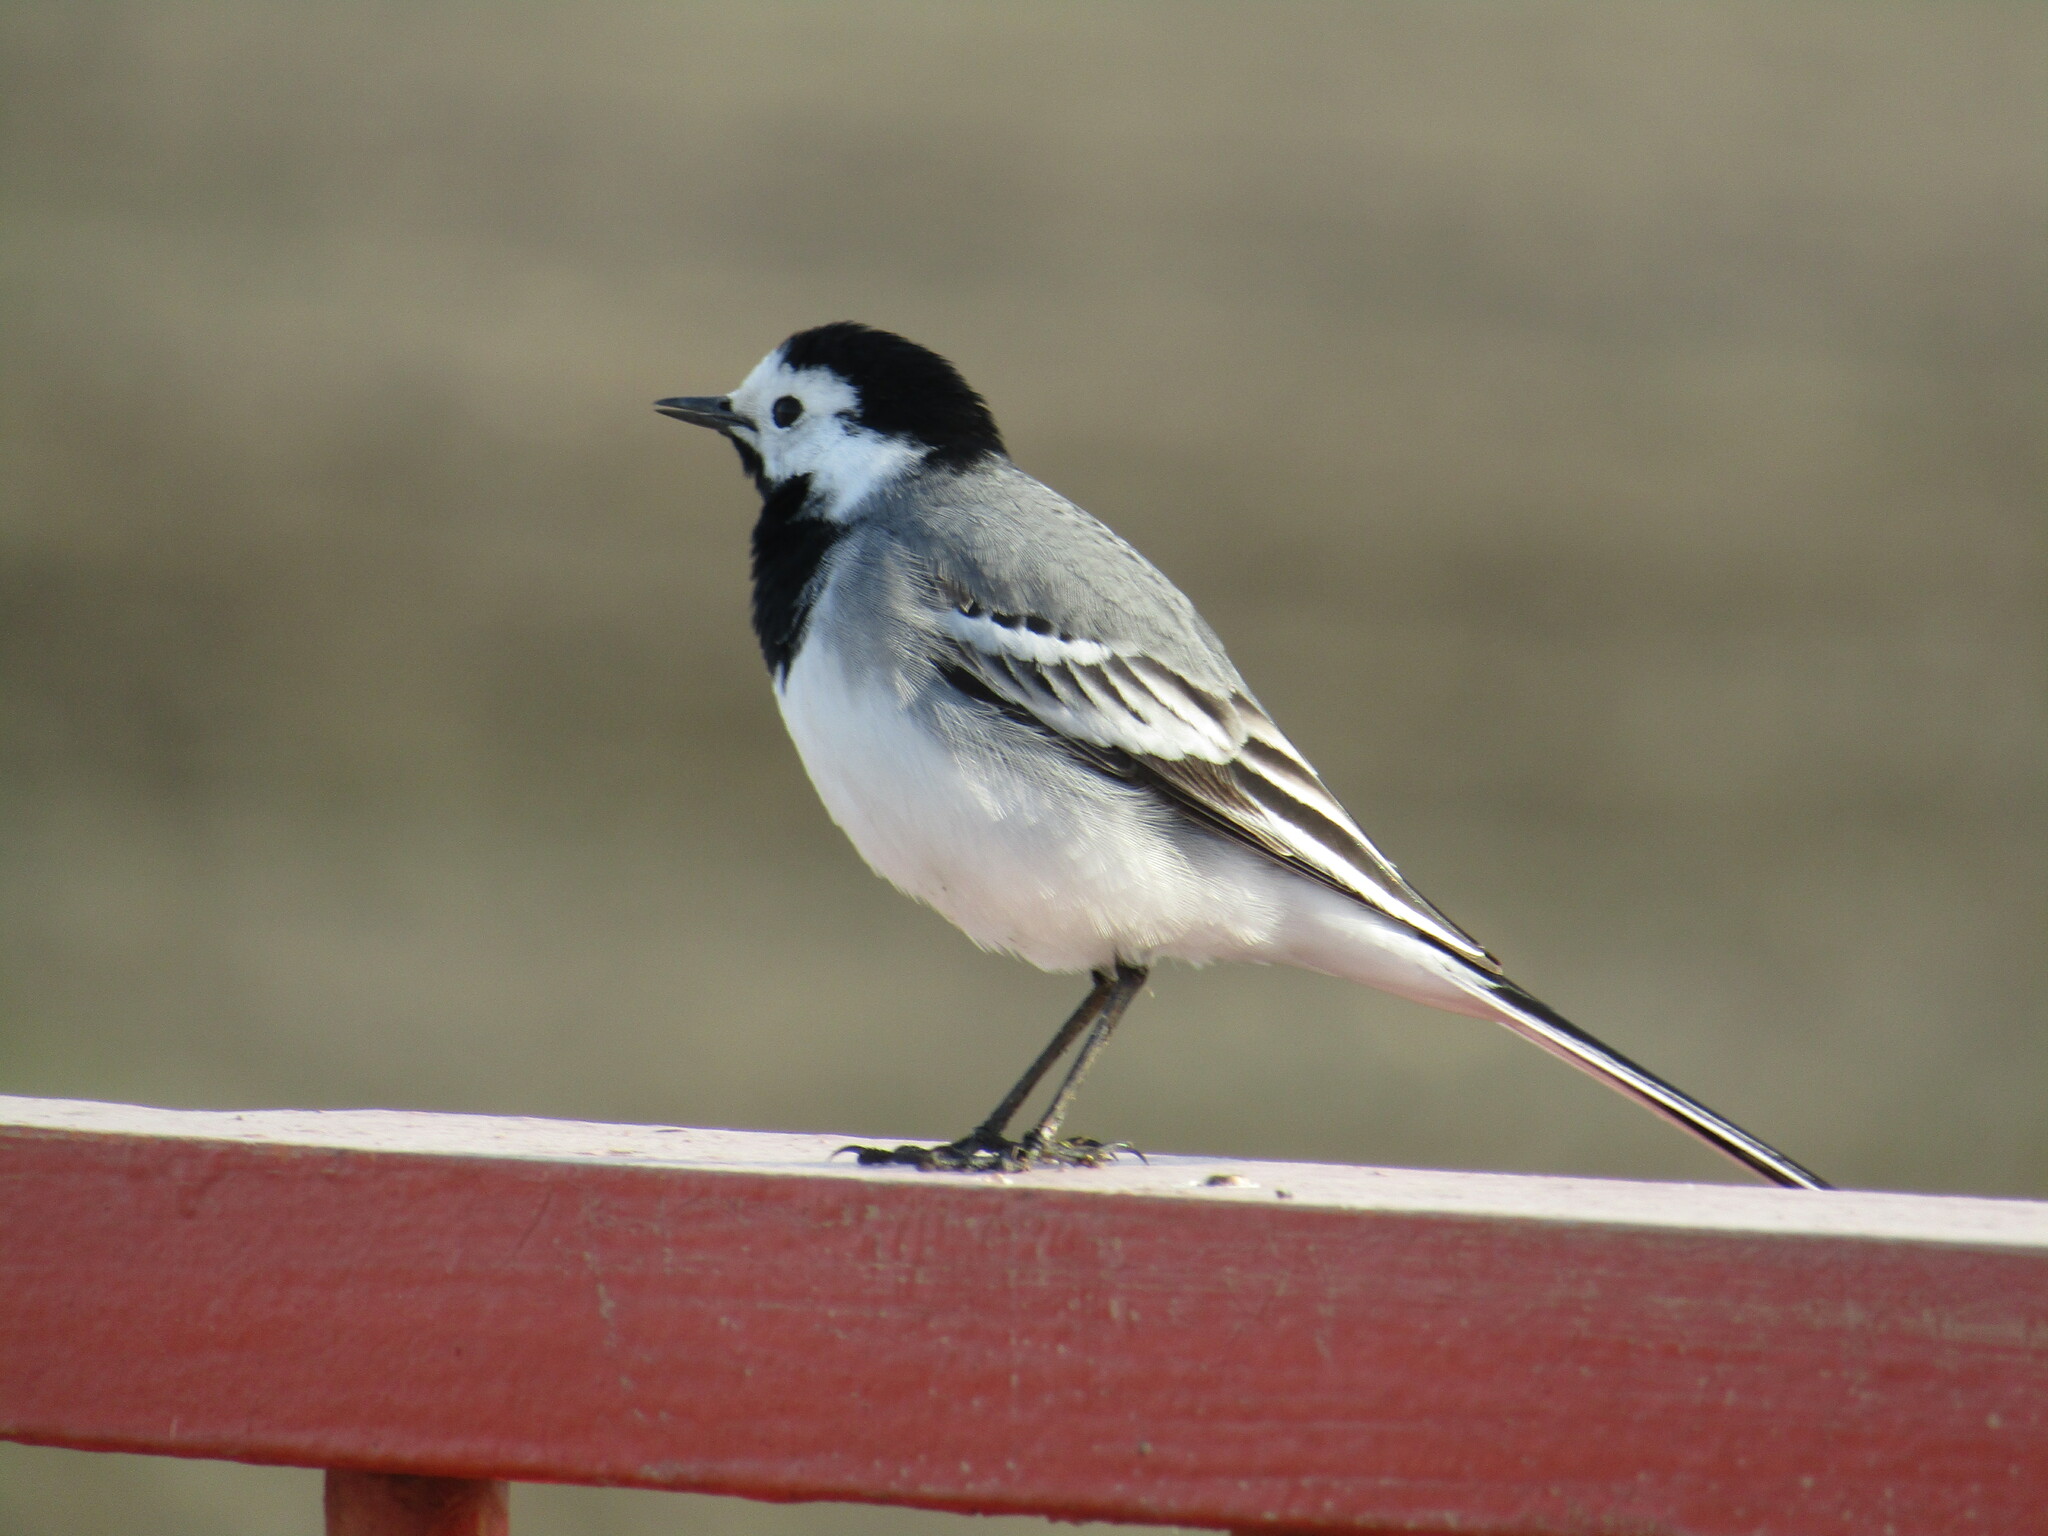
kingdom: Animalia
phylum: Chordata
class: Aves
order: Passeriformes
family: Motacillidae
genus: Motacilla
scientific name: Motacilla alba
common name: White wagtail
